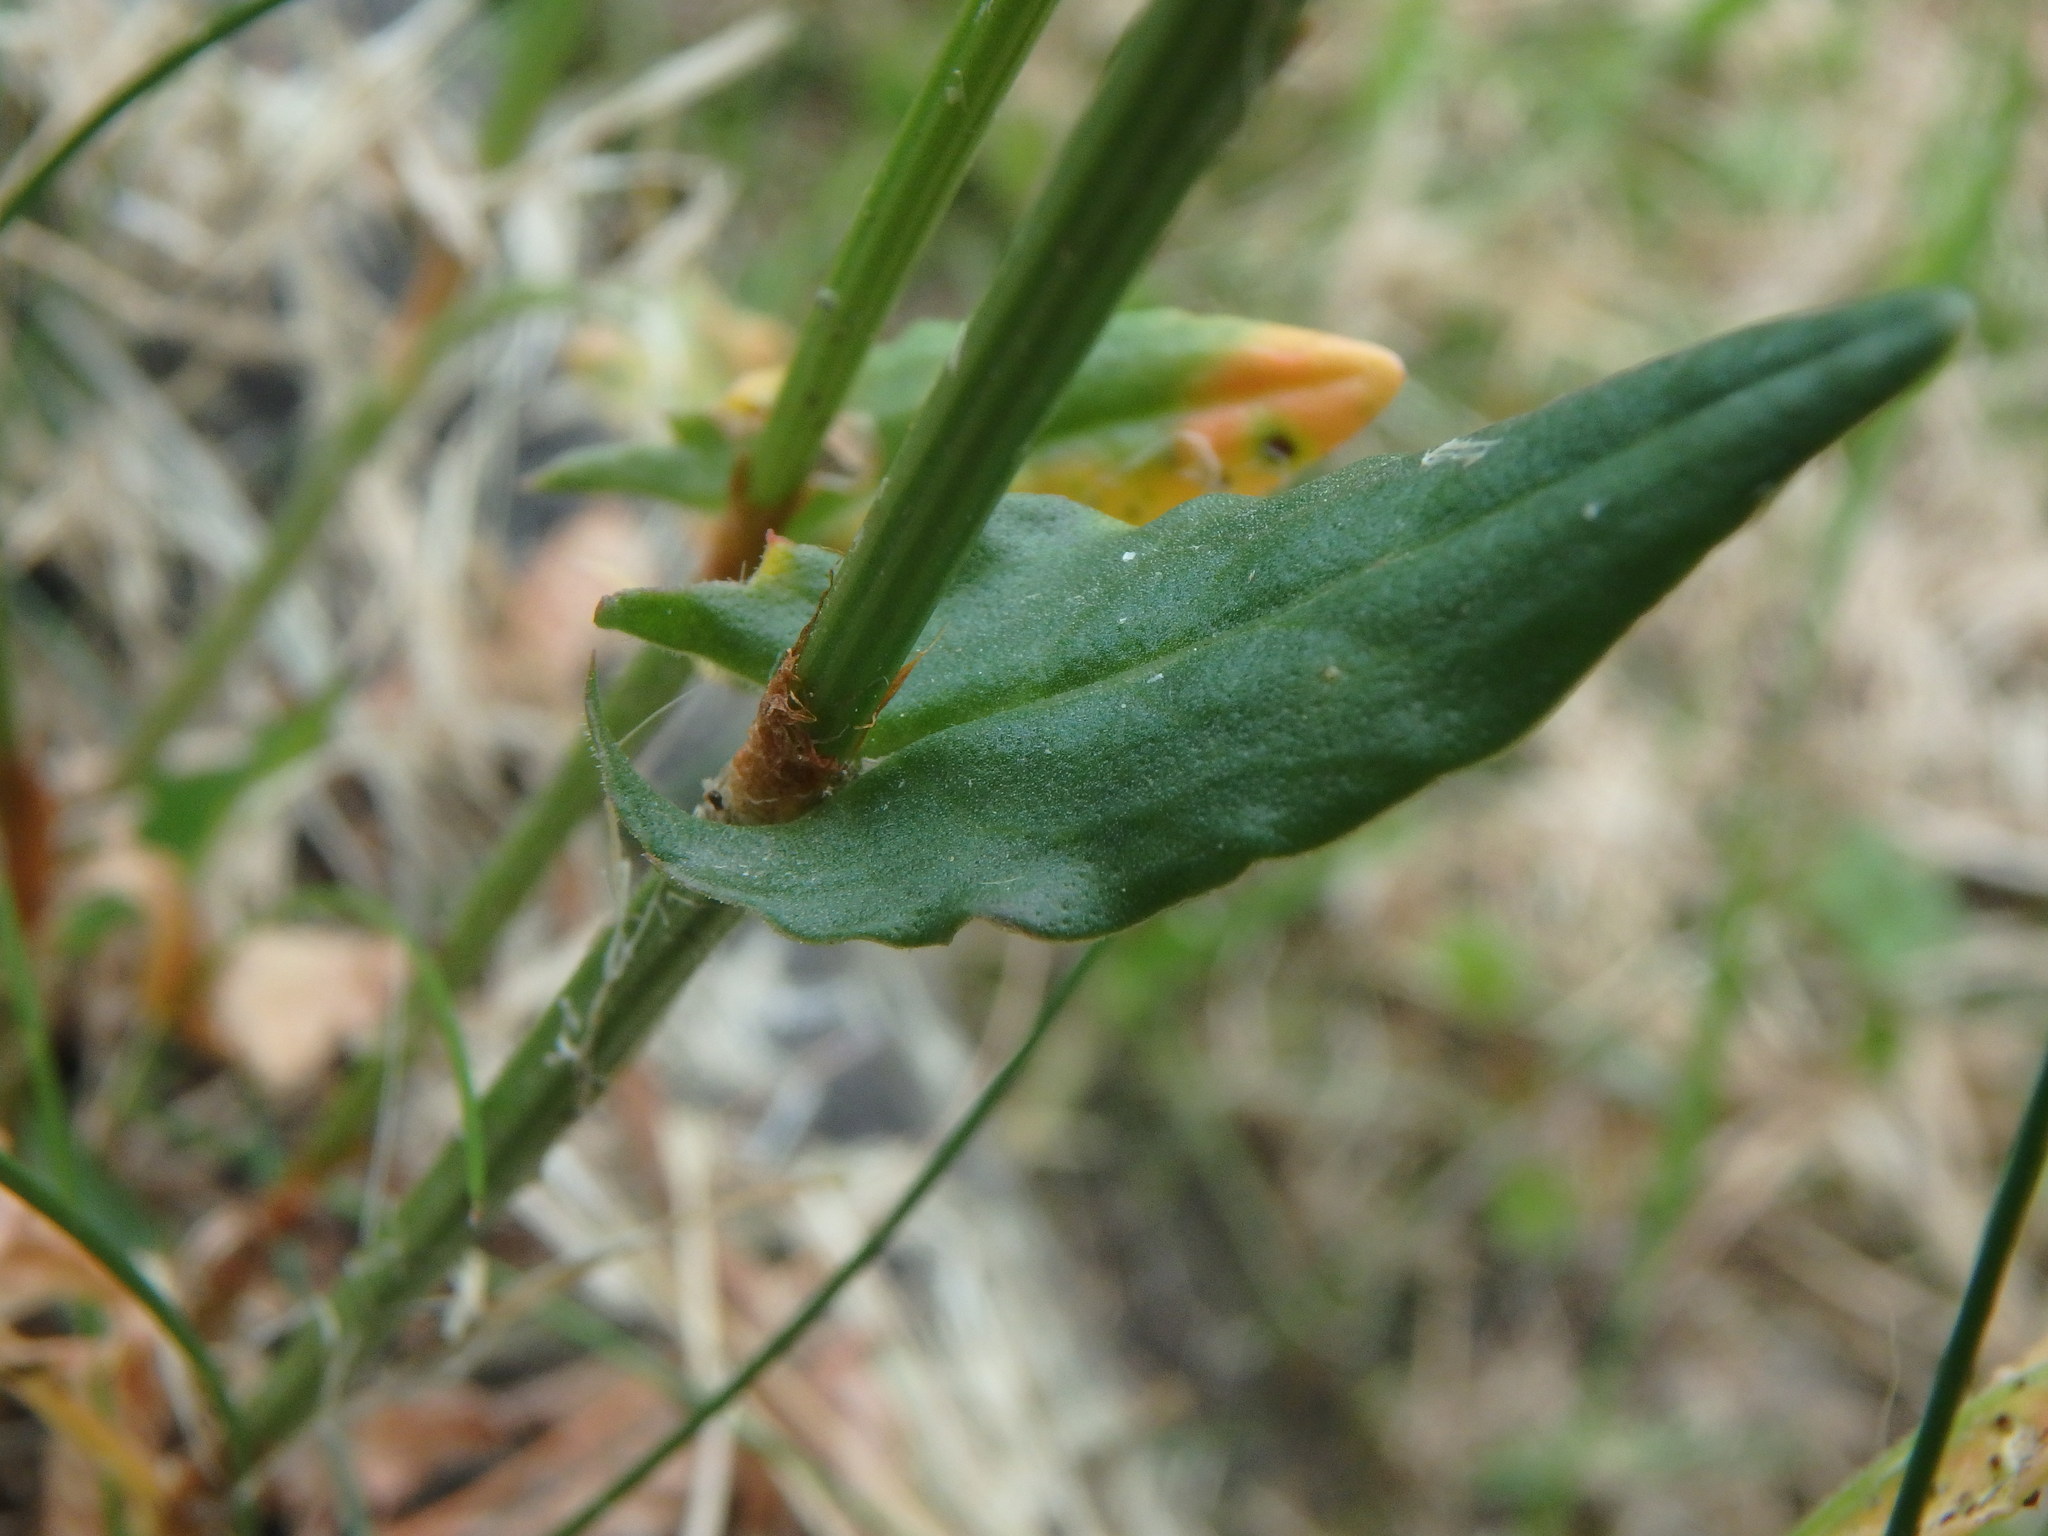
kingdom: Plantae
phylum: Tracheophyta
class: Magnoliopsida
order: Caryophyllales
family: Polygonaceae
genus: Rumex
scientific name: Rumex acetosa
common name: Garden sorrel
